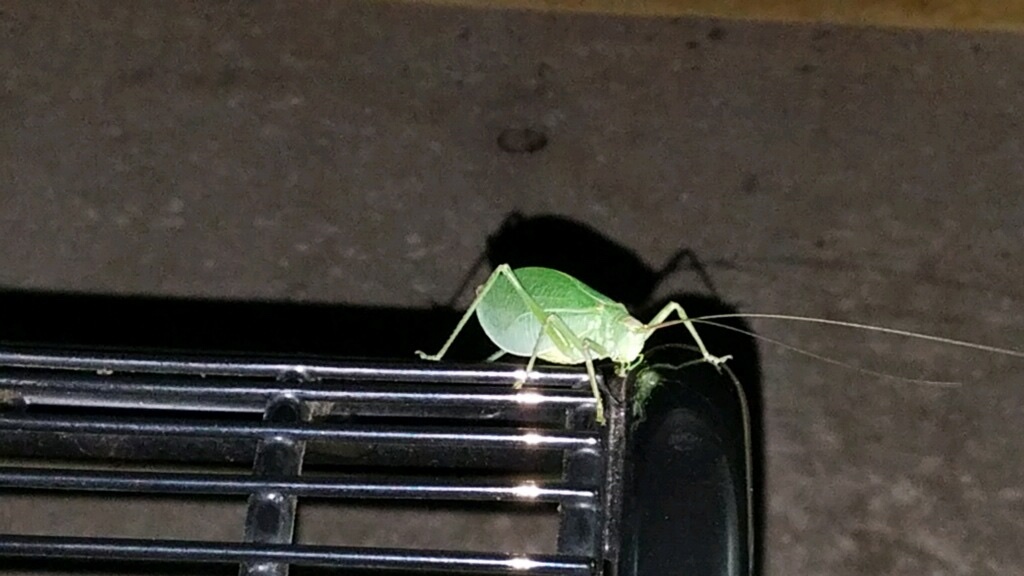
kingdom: Animalia
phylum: Arthropoda
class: Insecta
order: Orthoptera
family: Tettigoniidae
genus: Pterophylla
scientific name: Pterophylla camellifolia
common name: Common true katydid
